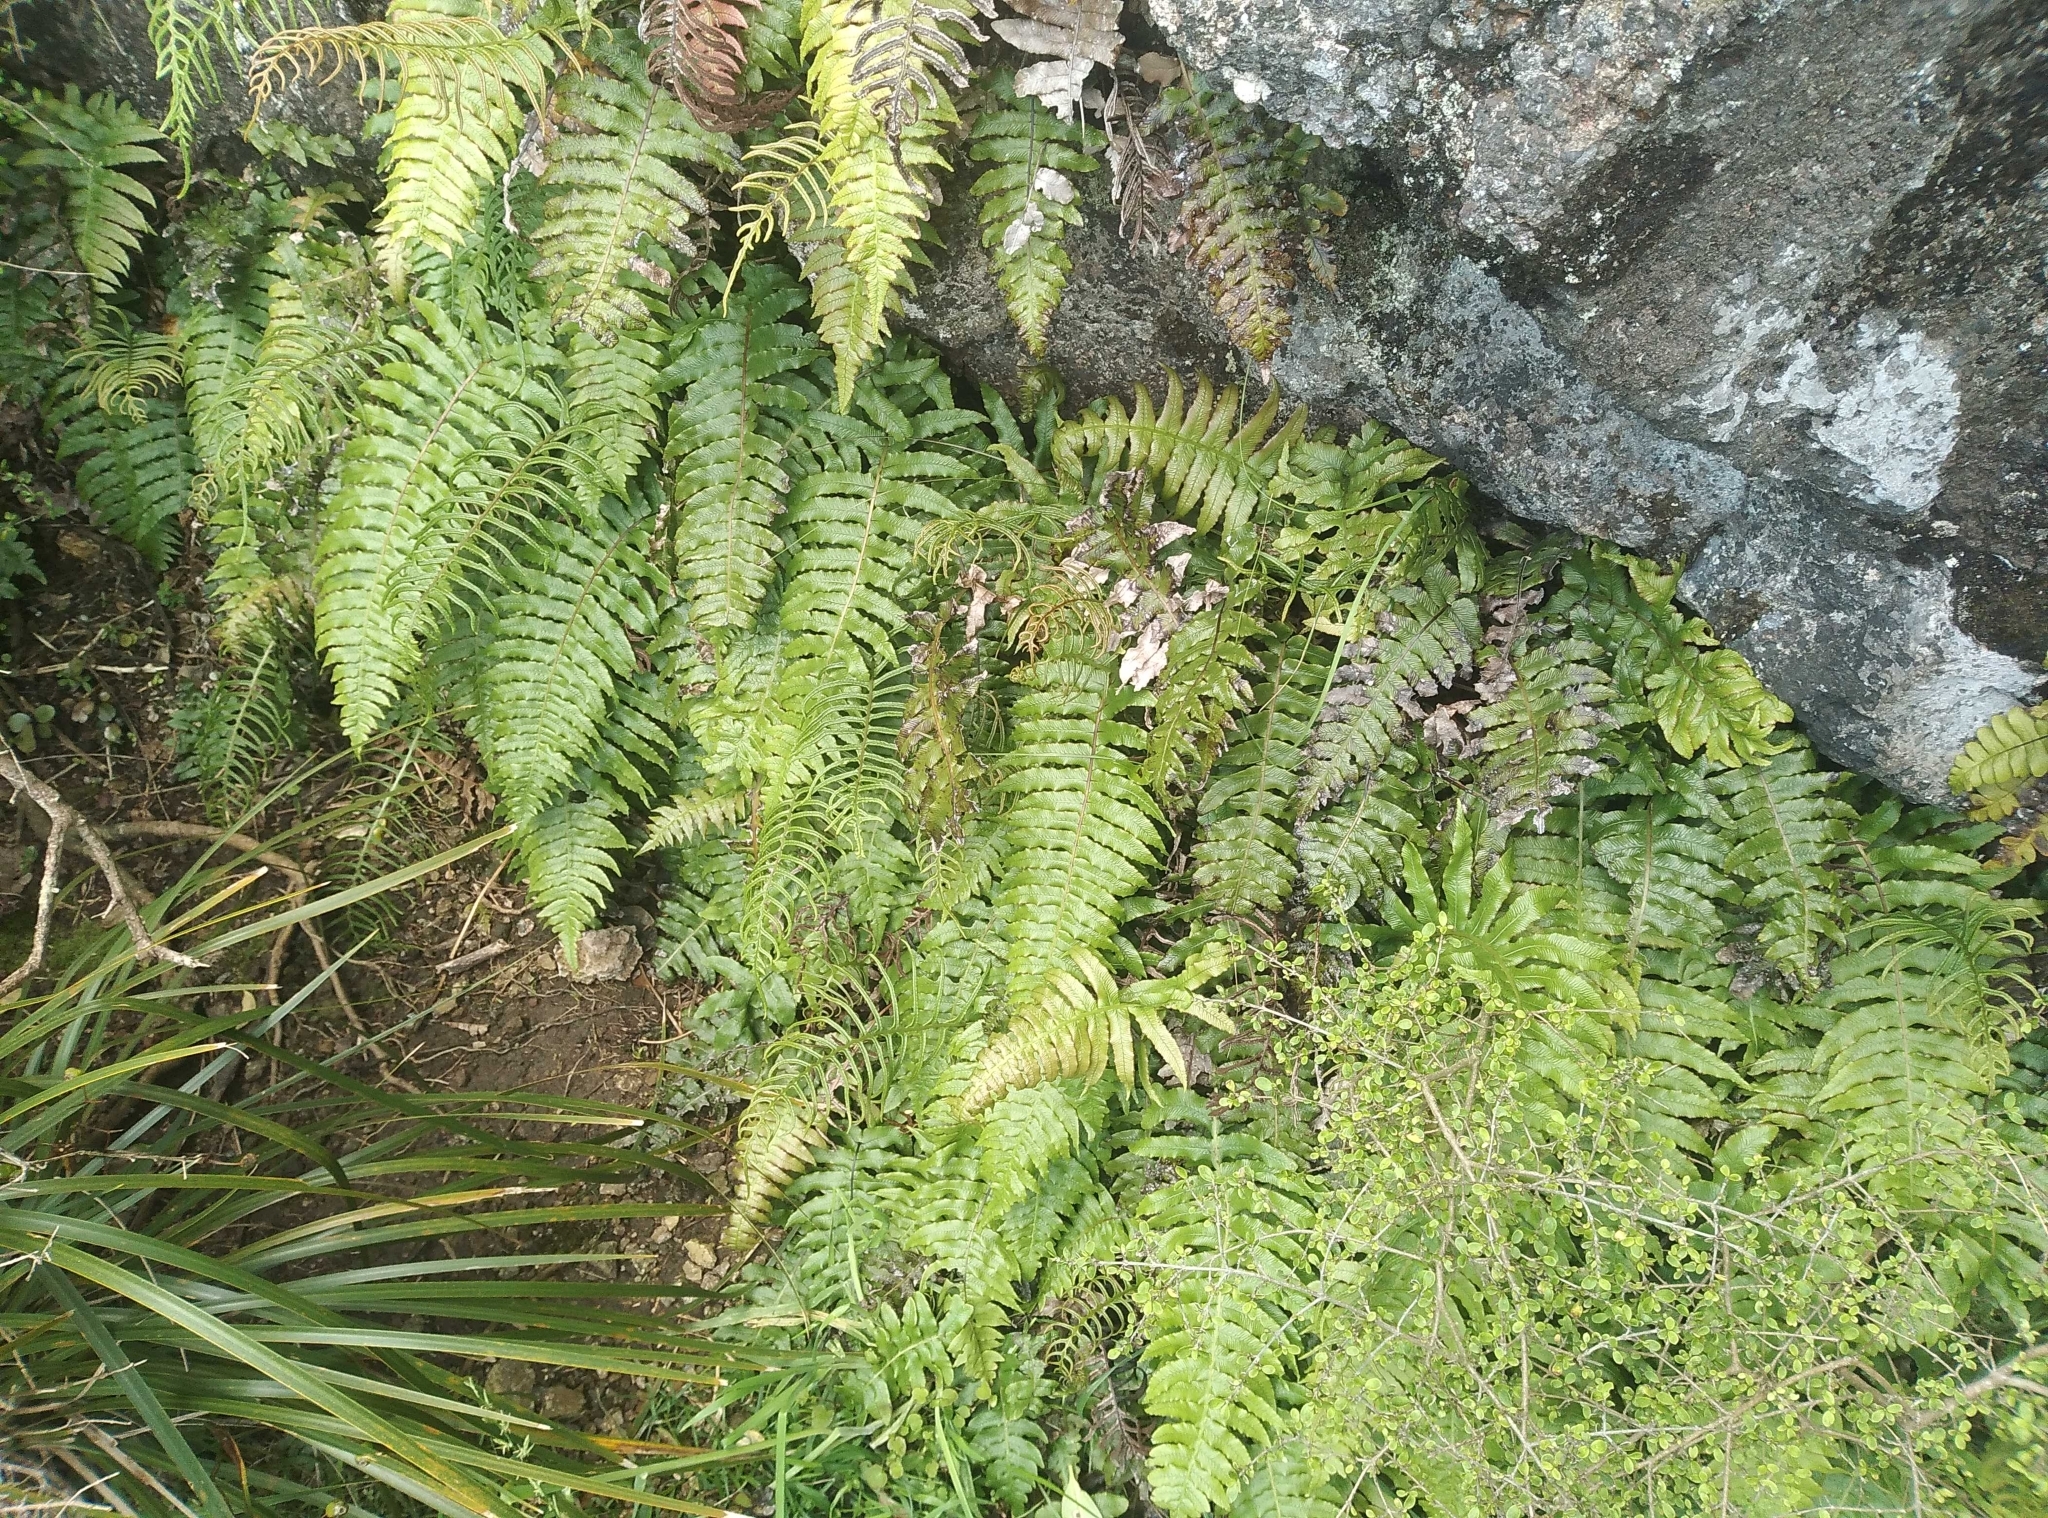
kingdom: Plantae
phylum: Tracheophyta
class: Polypodiopsida
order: Polypodiales
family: Blechnaceae
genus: Cranfillia
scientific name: Cranfillia deltoides
